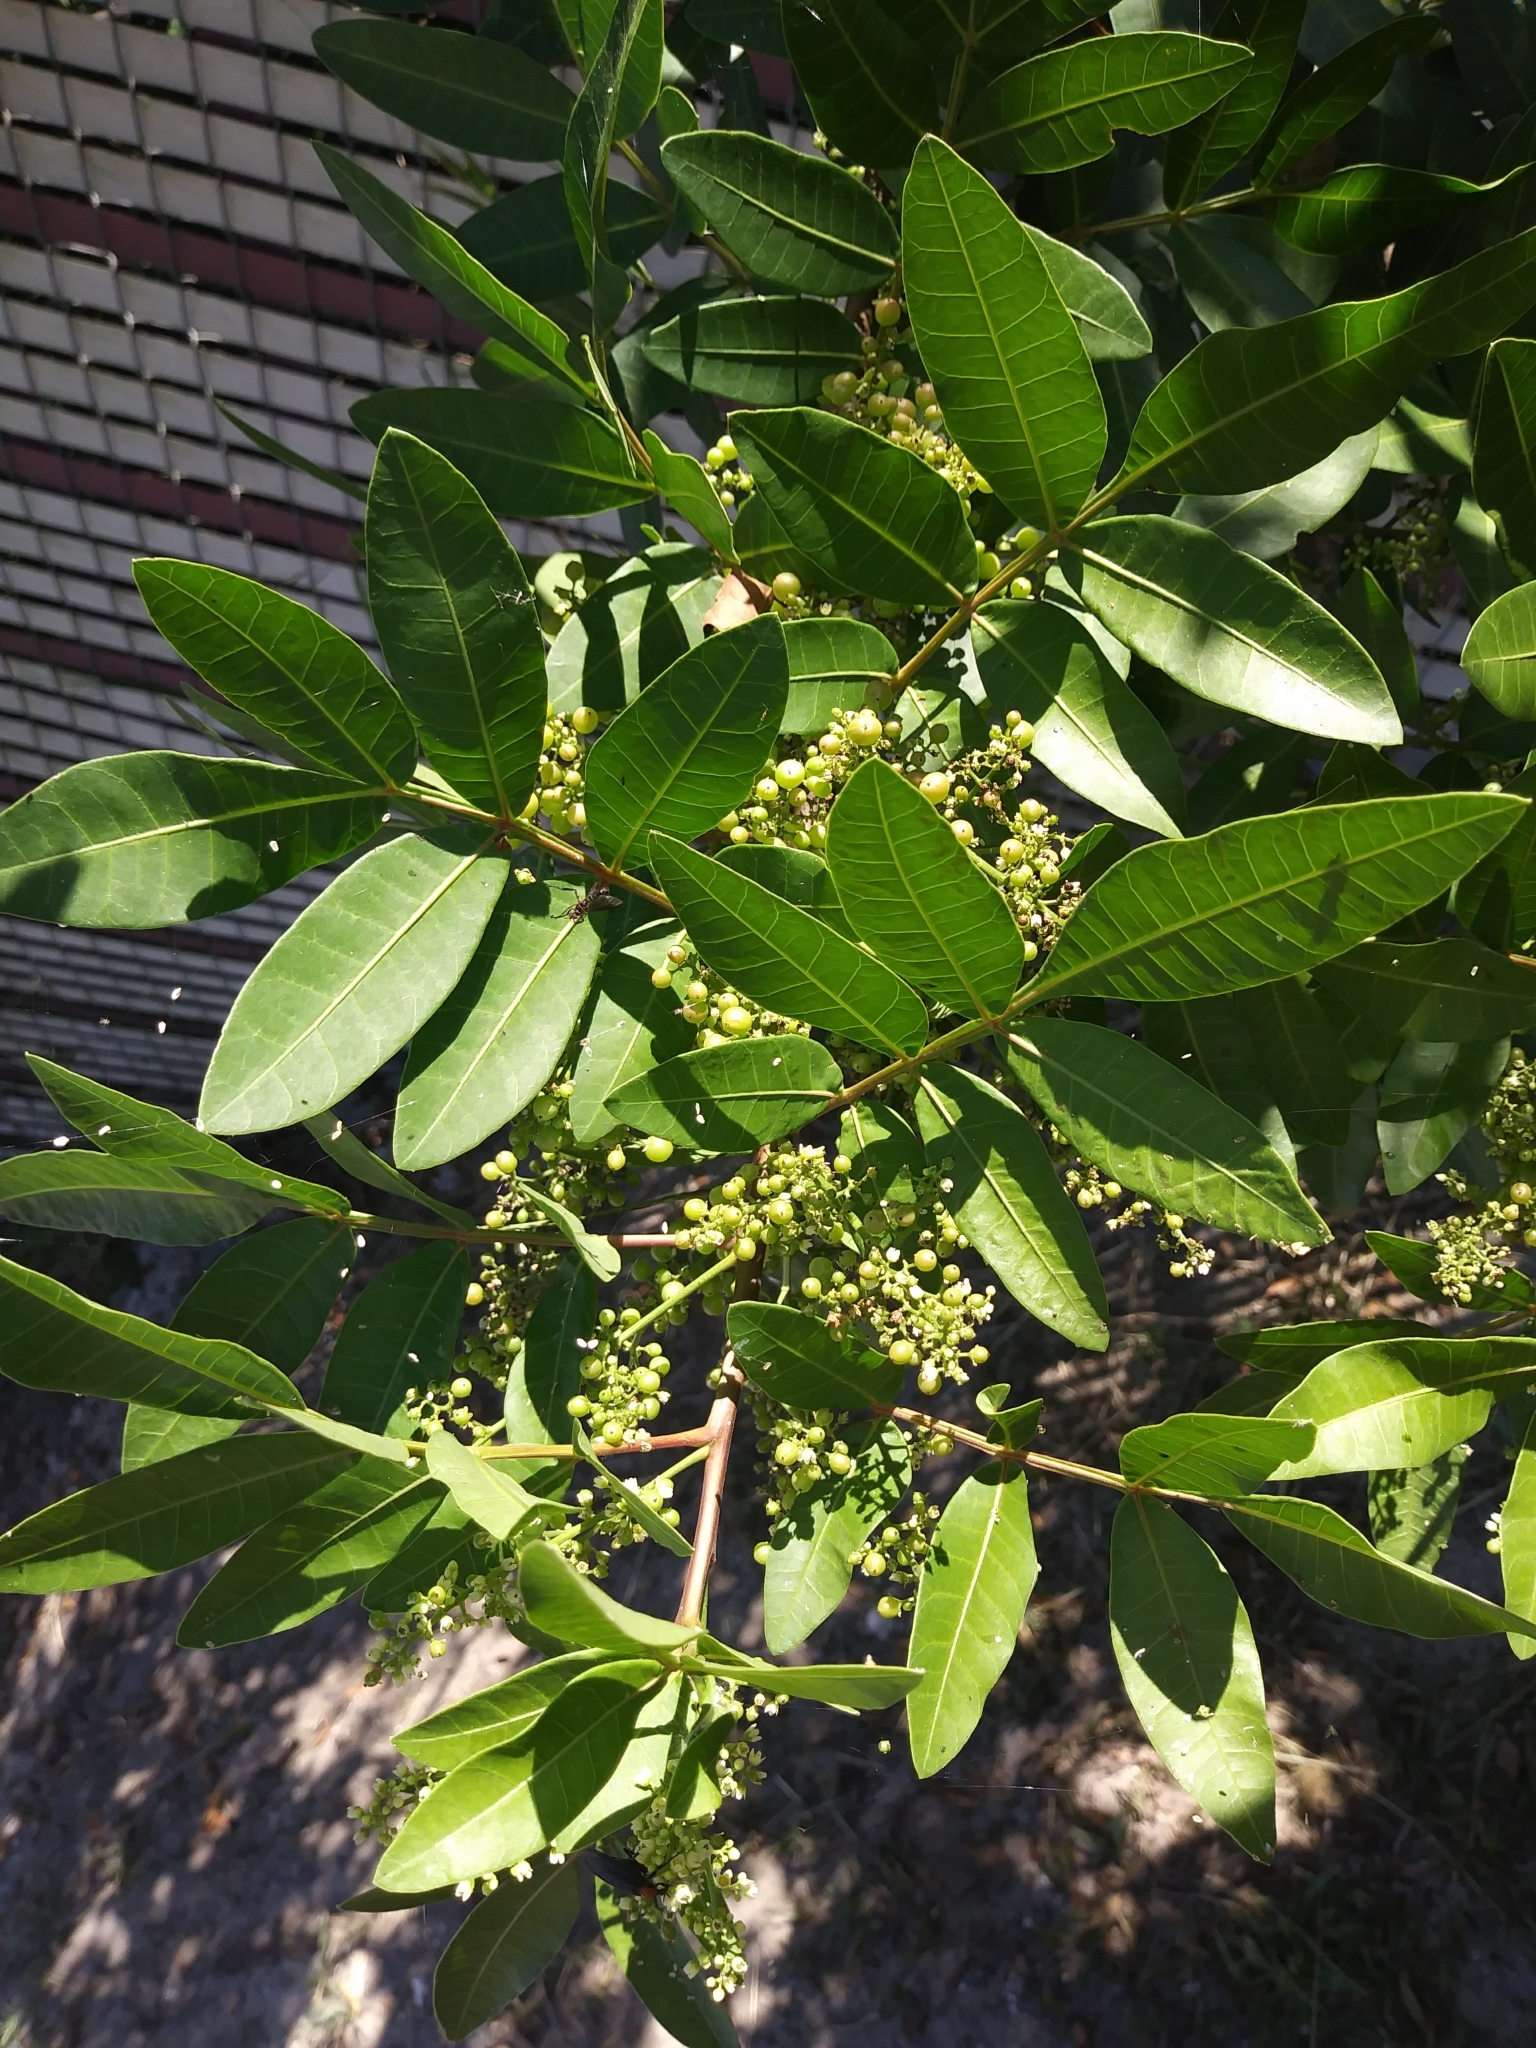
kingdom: Plantae
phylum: Tracheophyta
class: Magnoliopsida
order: Sapindales
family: Anacardiaceae
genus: Schinus
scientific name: Schinus terebinthifolia
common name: Brazilian peppertree
